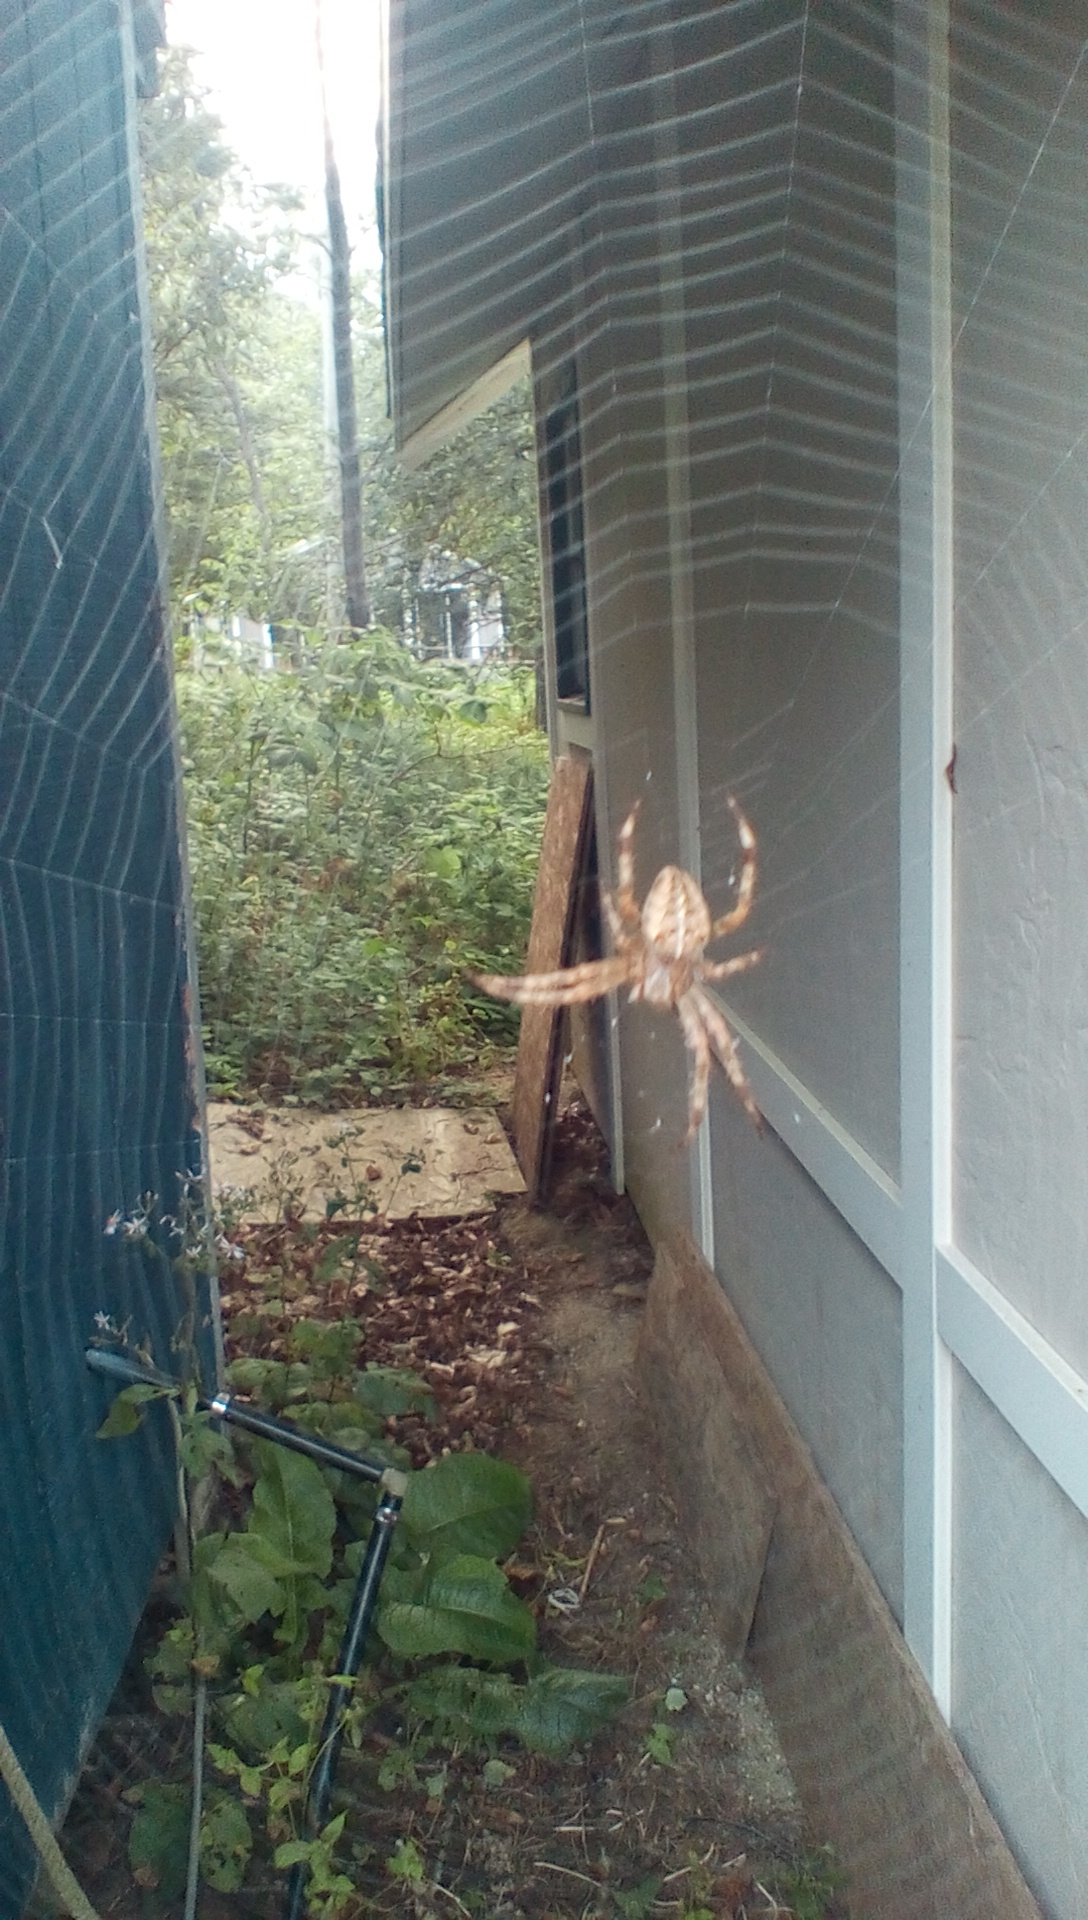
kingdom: Animalia
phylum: Arthropoda
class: Arachnida
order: Araneae
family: Araneidae
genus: Araneus
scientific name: Araneus diadematus
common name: Cross orbweaver
